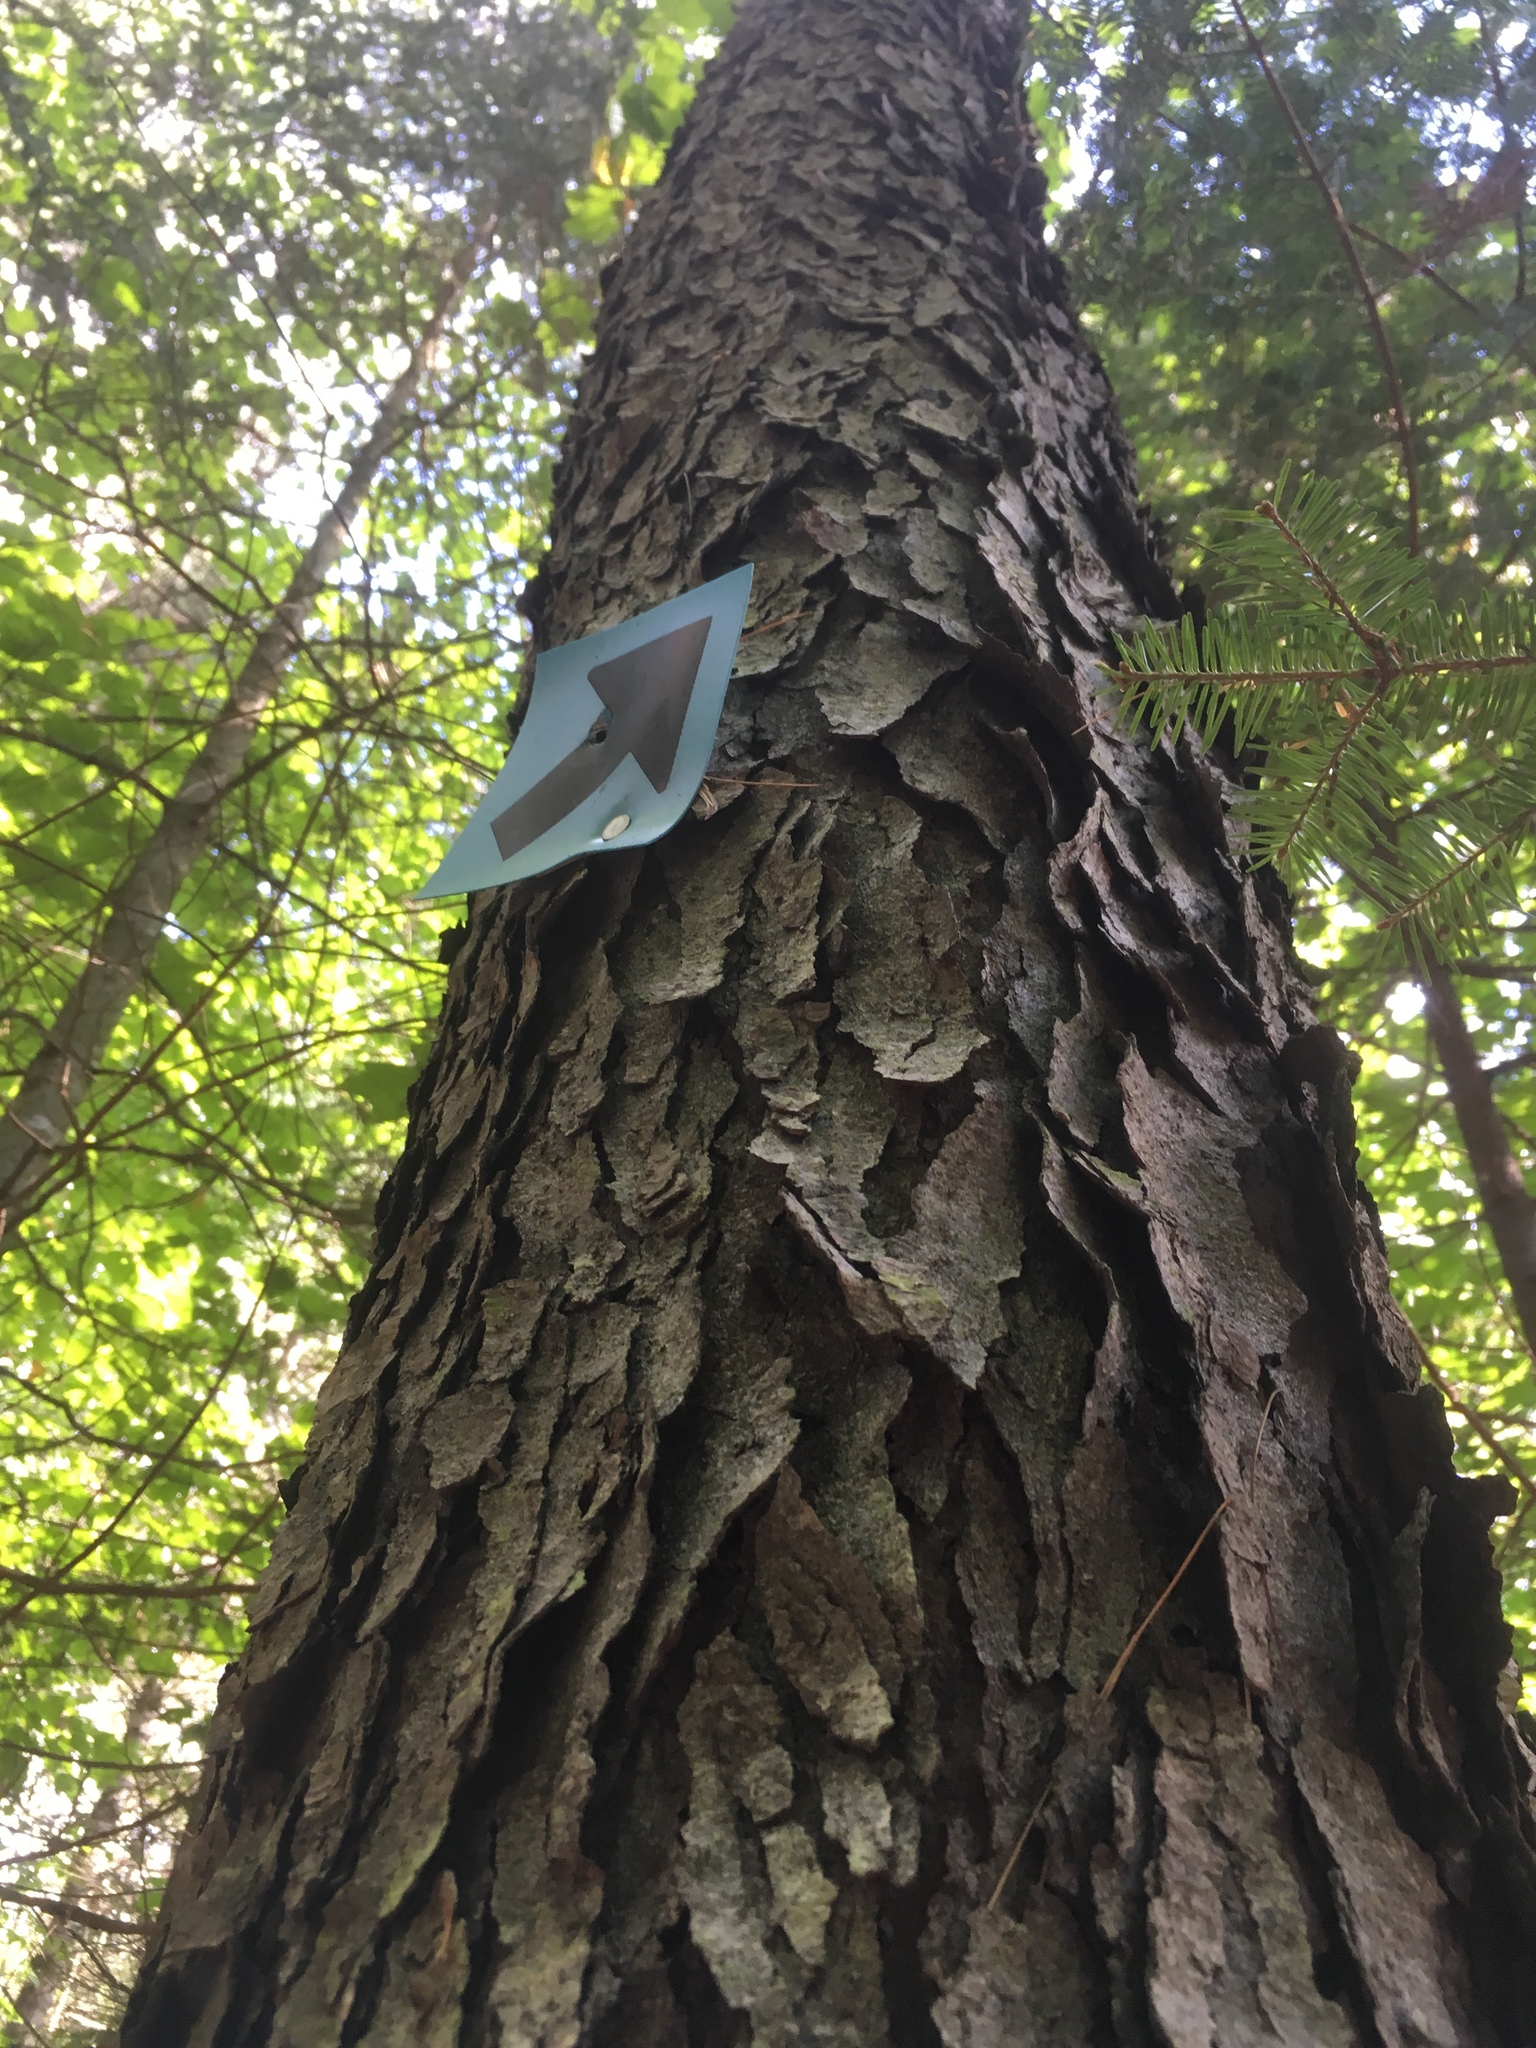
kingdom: Plantae
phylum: Tracheophyta
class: Magnoliopsida
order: Rosales
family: Rosaceae
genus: Prunus
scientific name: Prunus serotina
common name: Black cherry
